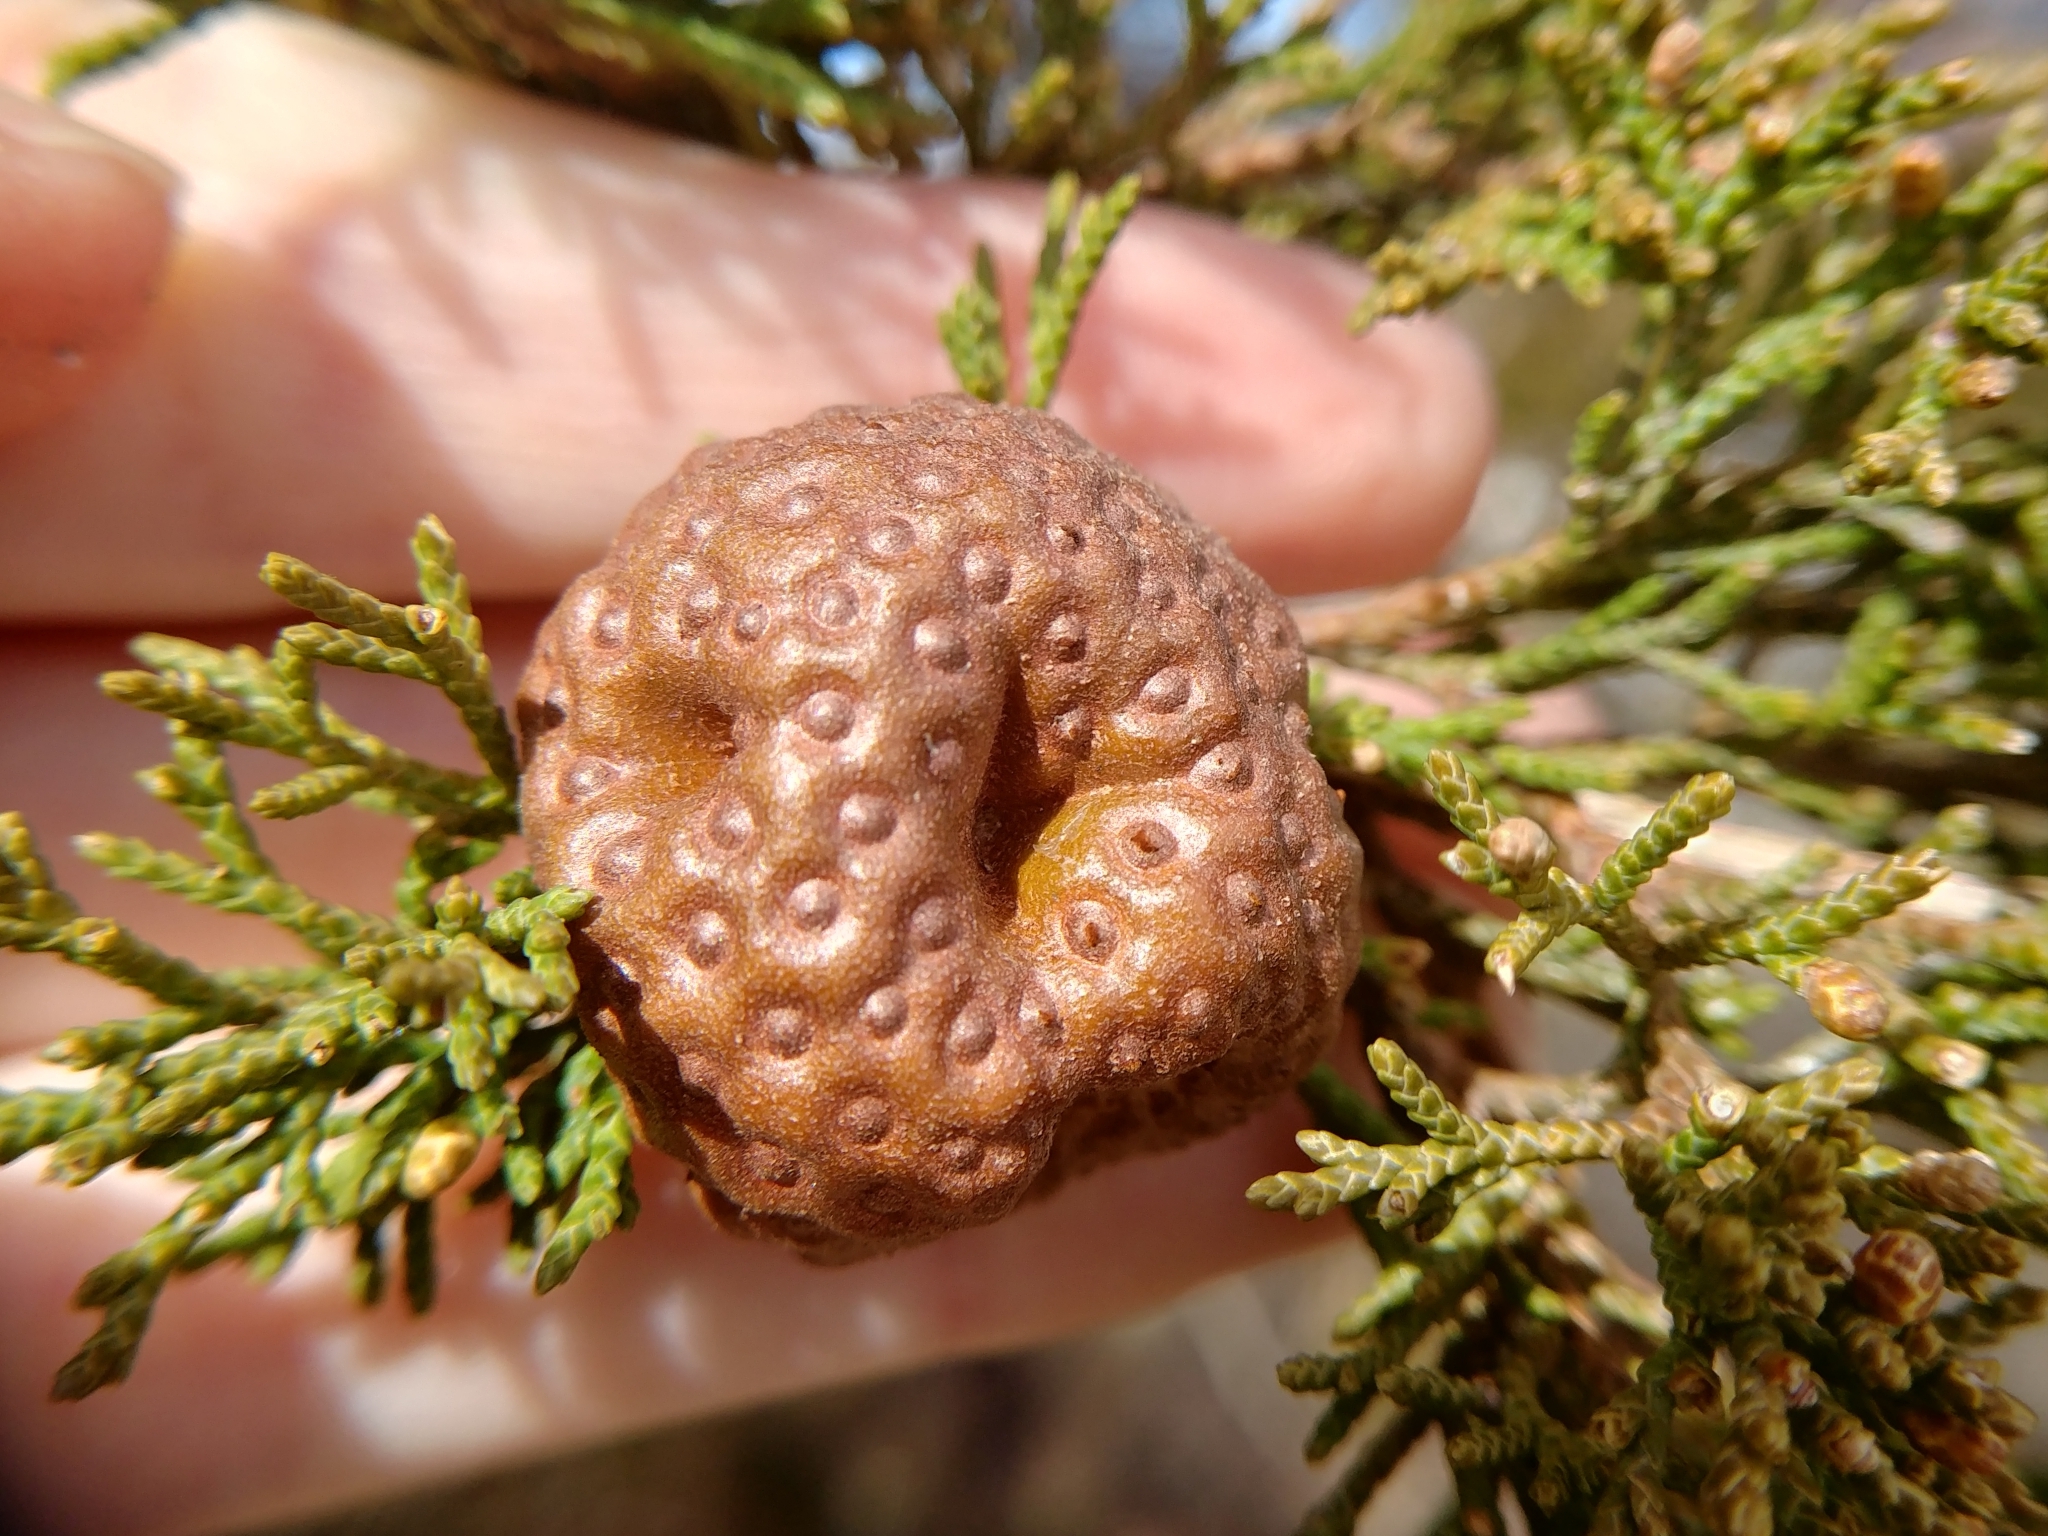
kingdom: Fungi
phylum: Basidiomycota
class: Pucciniomycetes
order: Pucciniales
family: Gymnosporangiaceae
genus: Gymnosporangium
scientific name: Gymnosporangium juniperi-virginianae
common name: Juniper-apple rust
